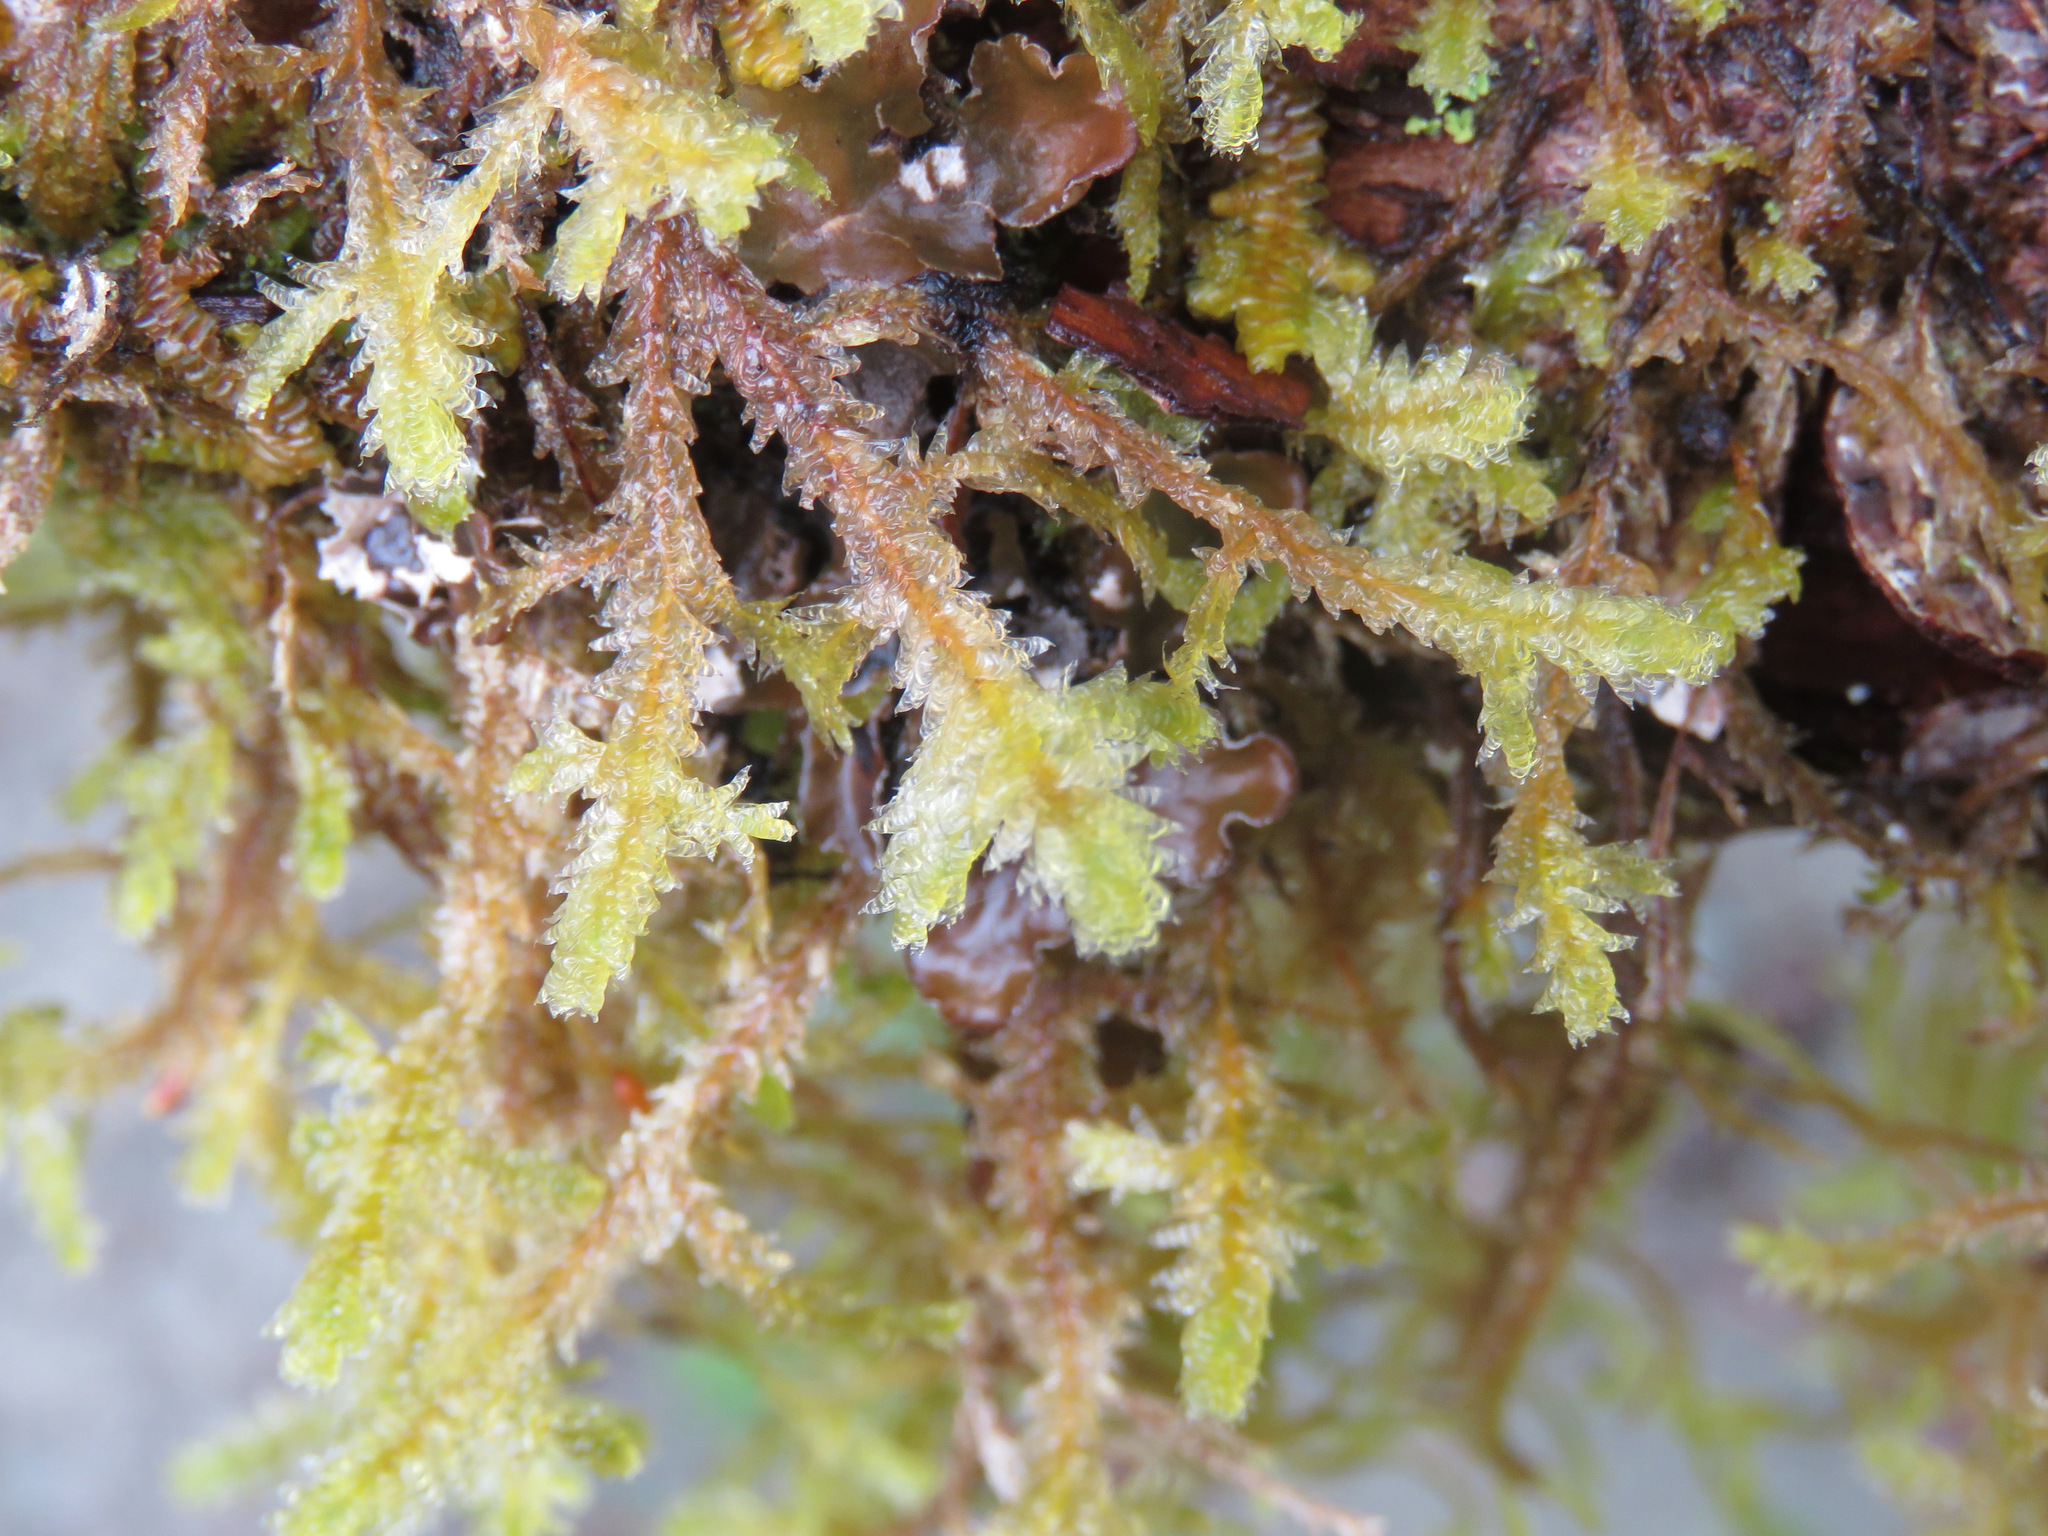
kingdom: Plantae
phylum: Bryophyta
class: Bryopsida
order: Hypnales
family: Neckeraceae
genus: Neckera
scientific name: Neckera douglasii
